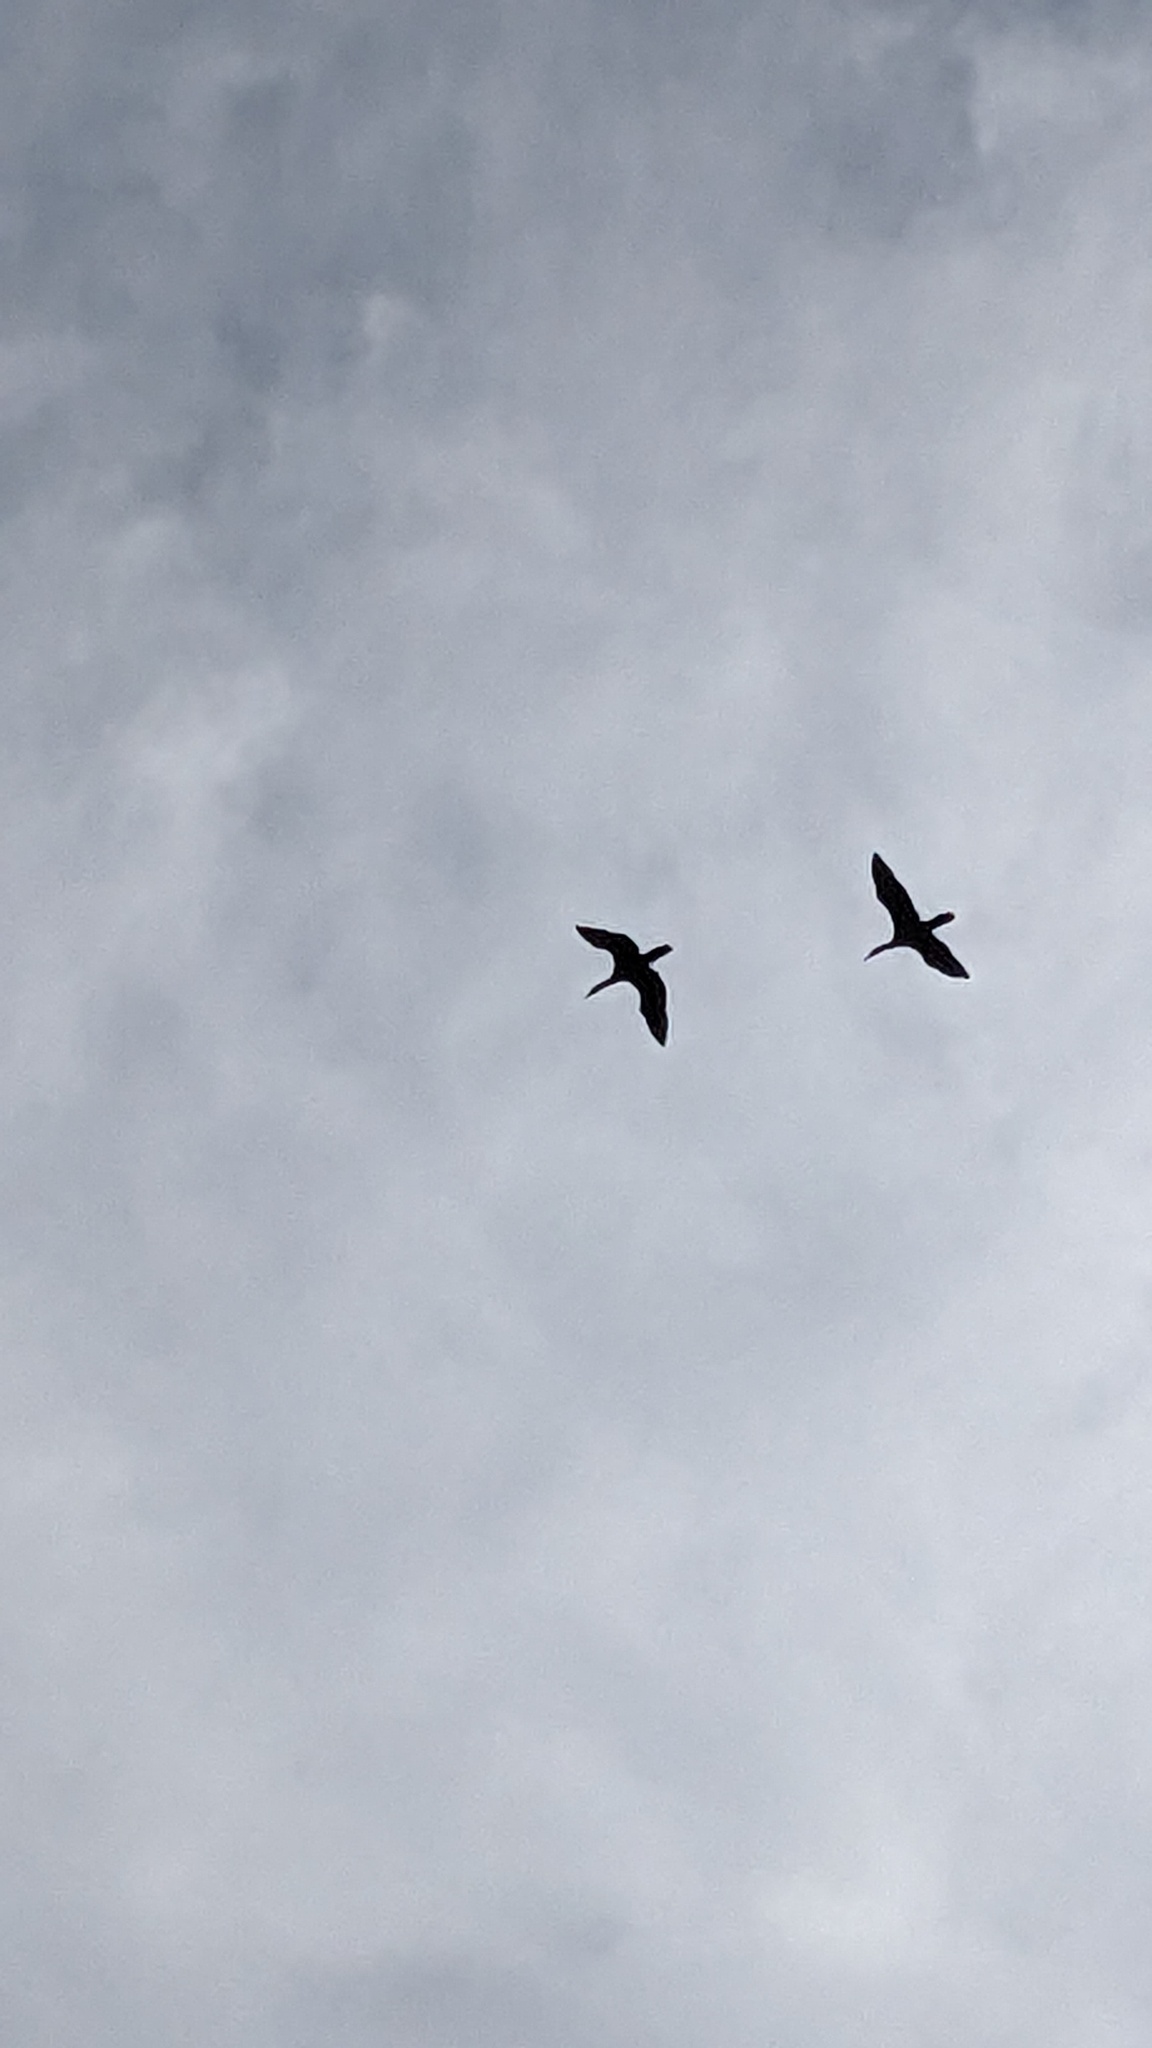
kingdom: Animalia
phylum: Chordata
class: Aves
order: Suliformes
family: Phalacrocoracidae
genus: Phalacrocorax
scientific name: Phalacrocorax auritus
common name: Double-crested cormorant
